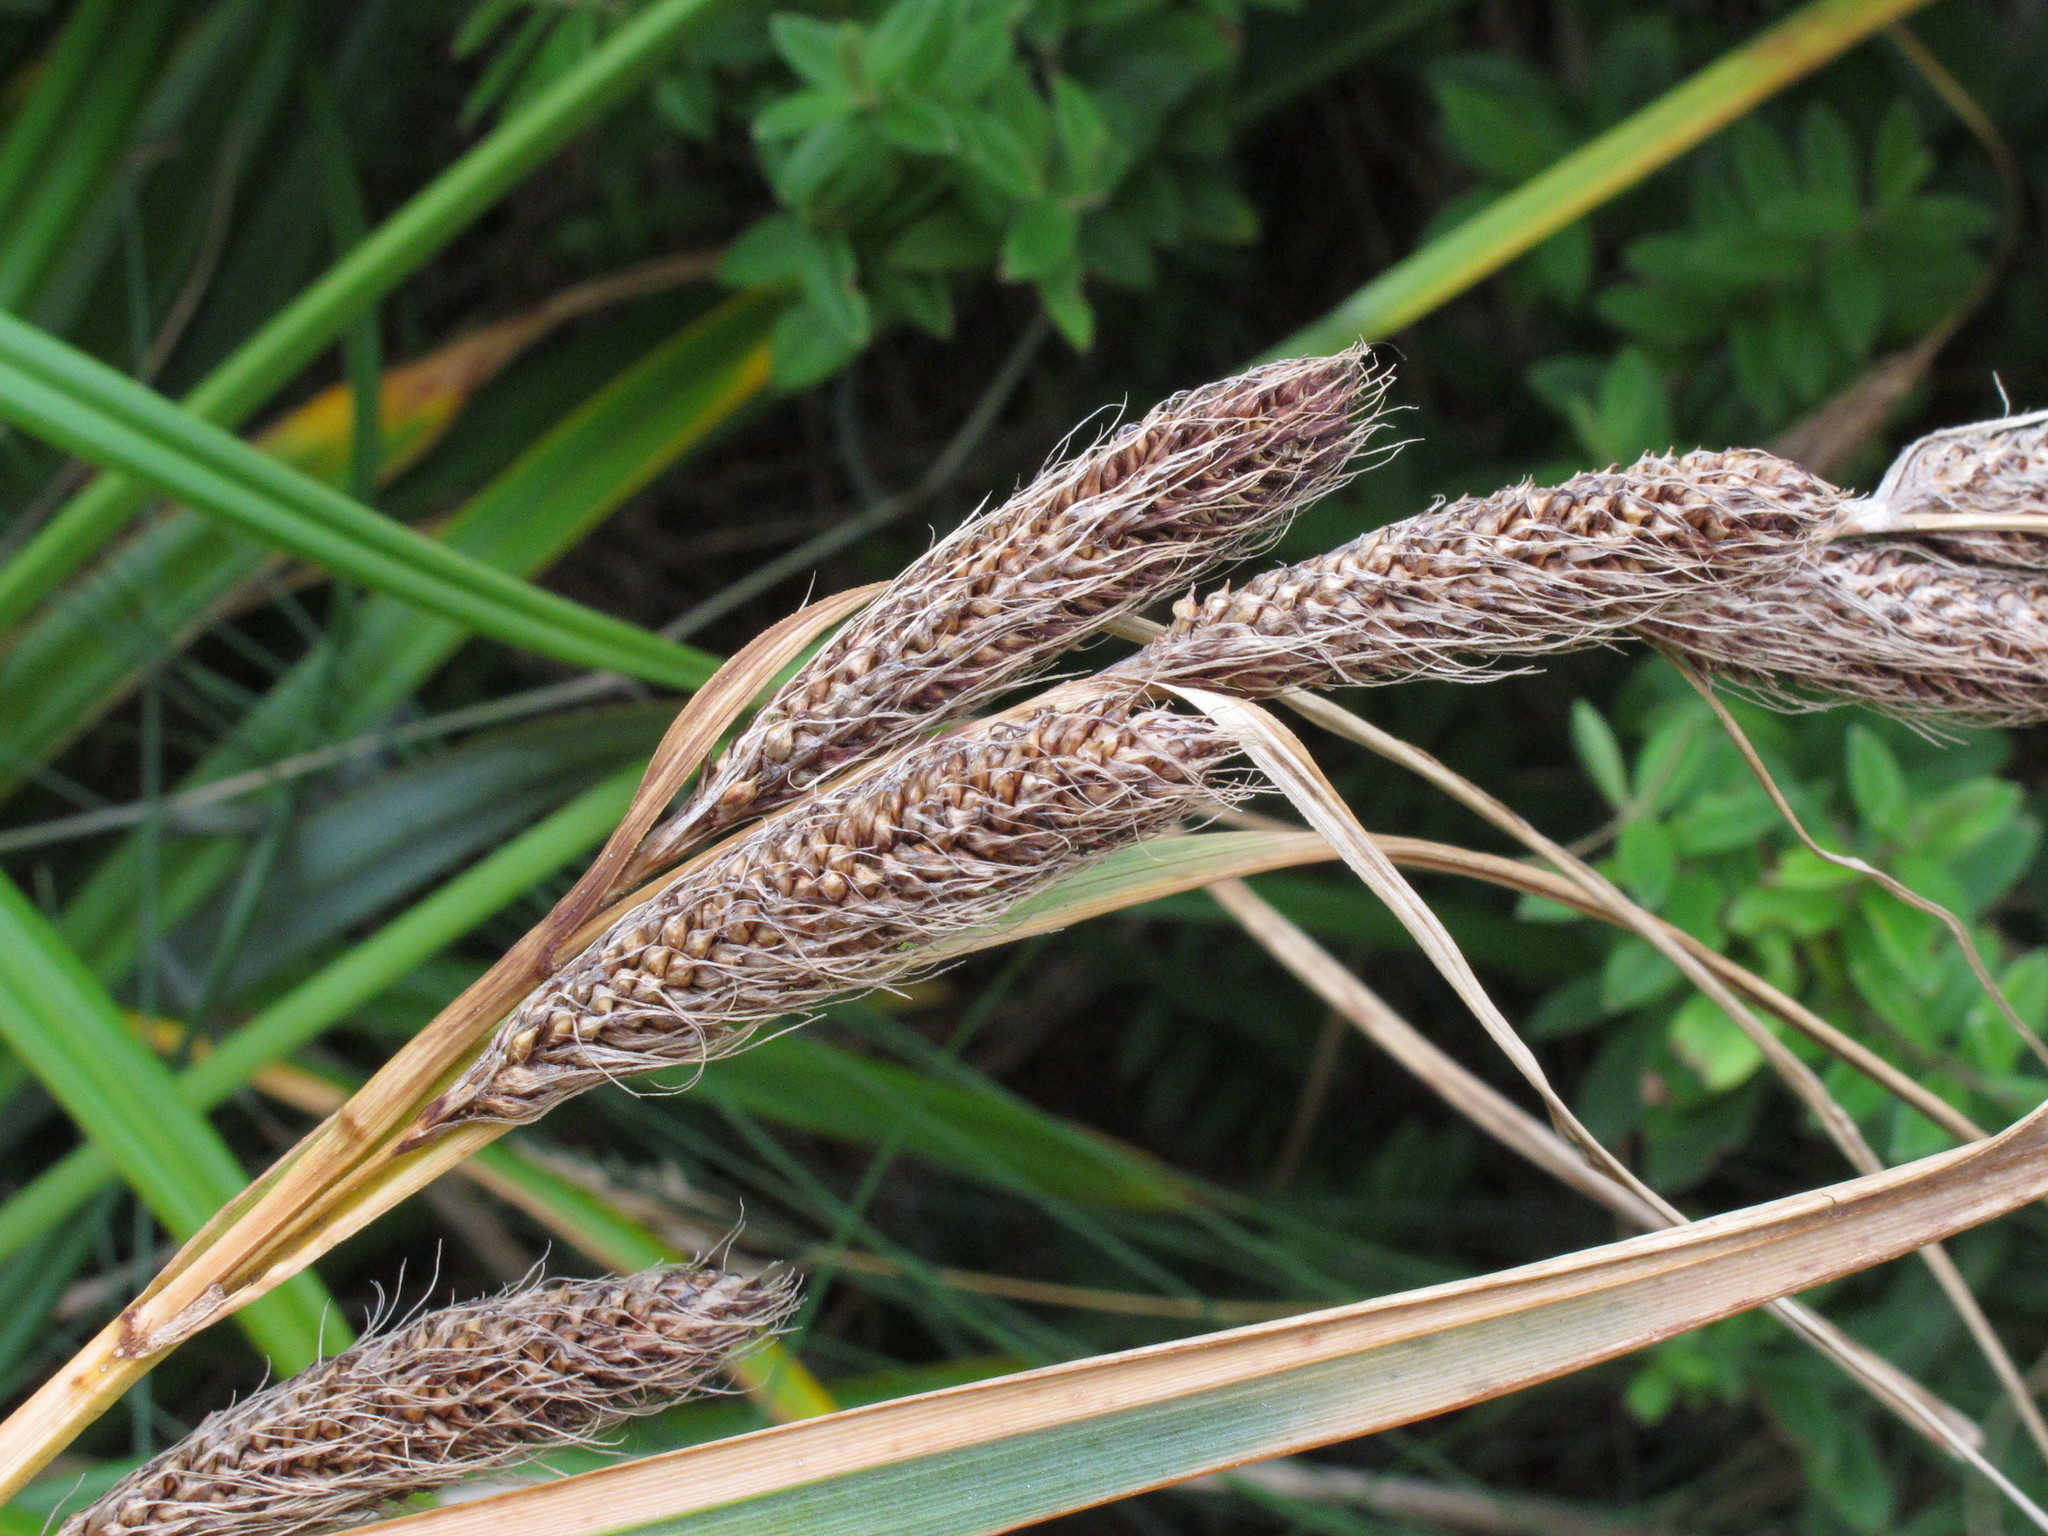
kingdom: Plantae
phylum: Tracheophyta
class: Liliopsida
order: Poales
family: Cyperaceae
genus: Carex
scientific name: Carex trifida
